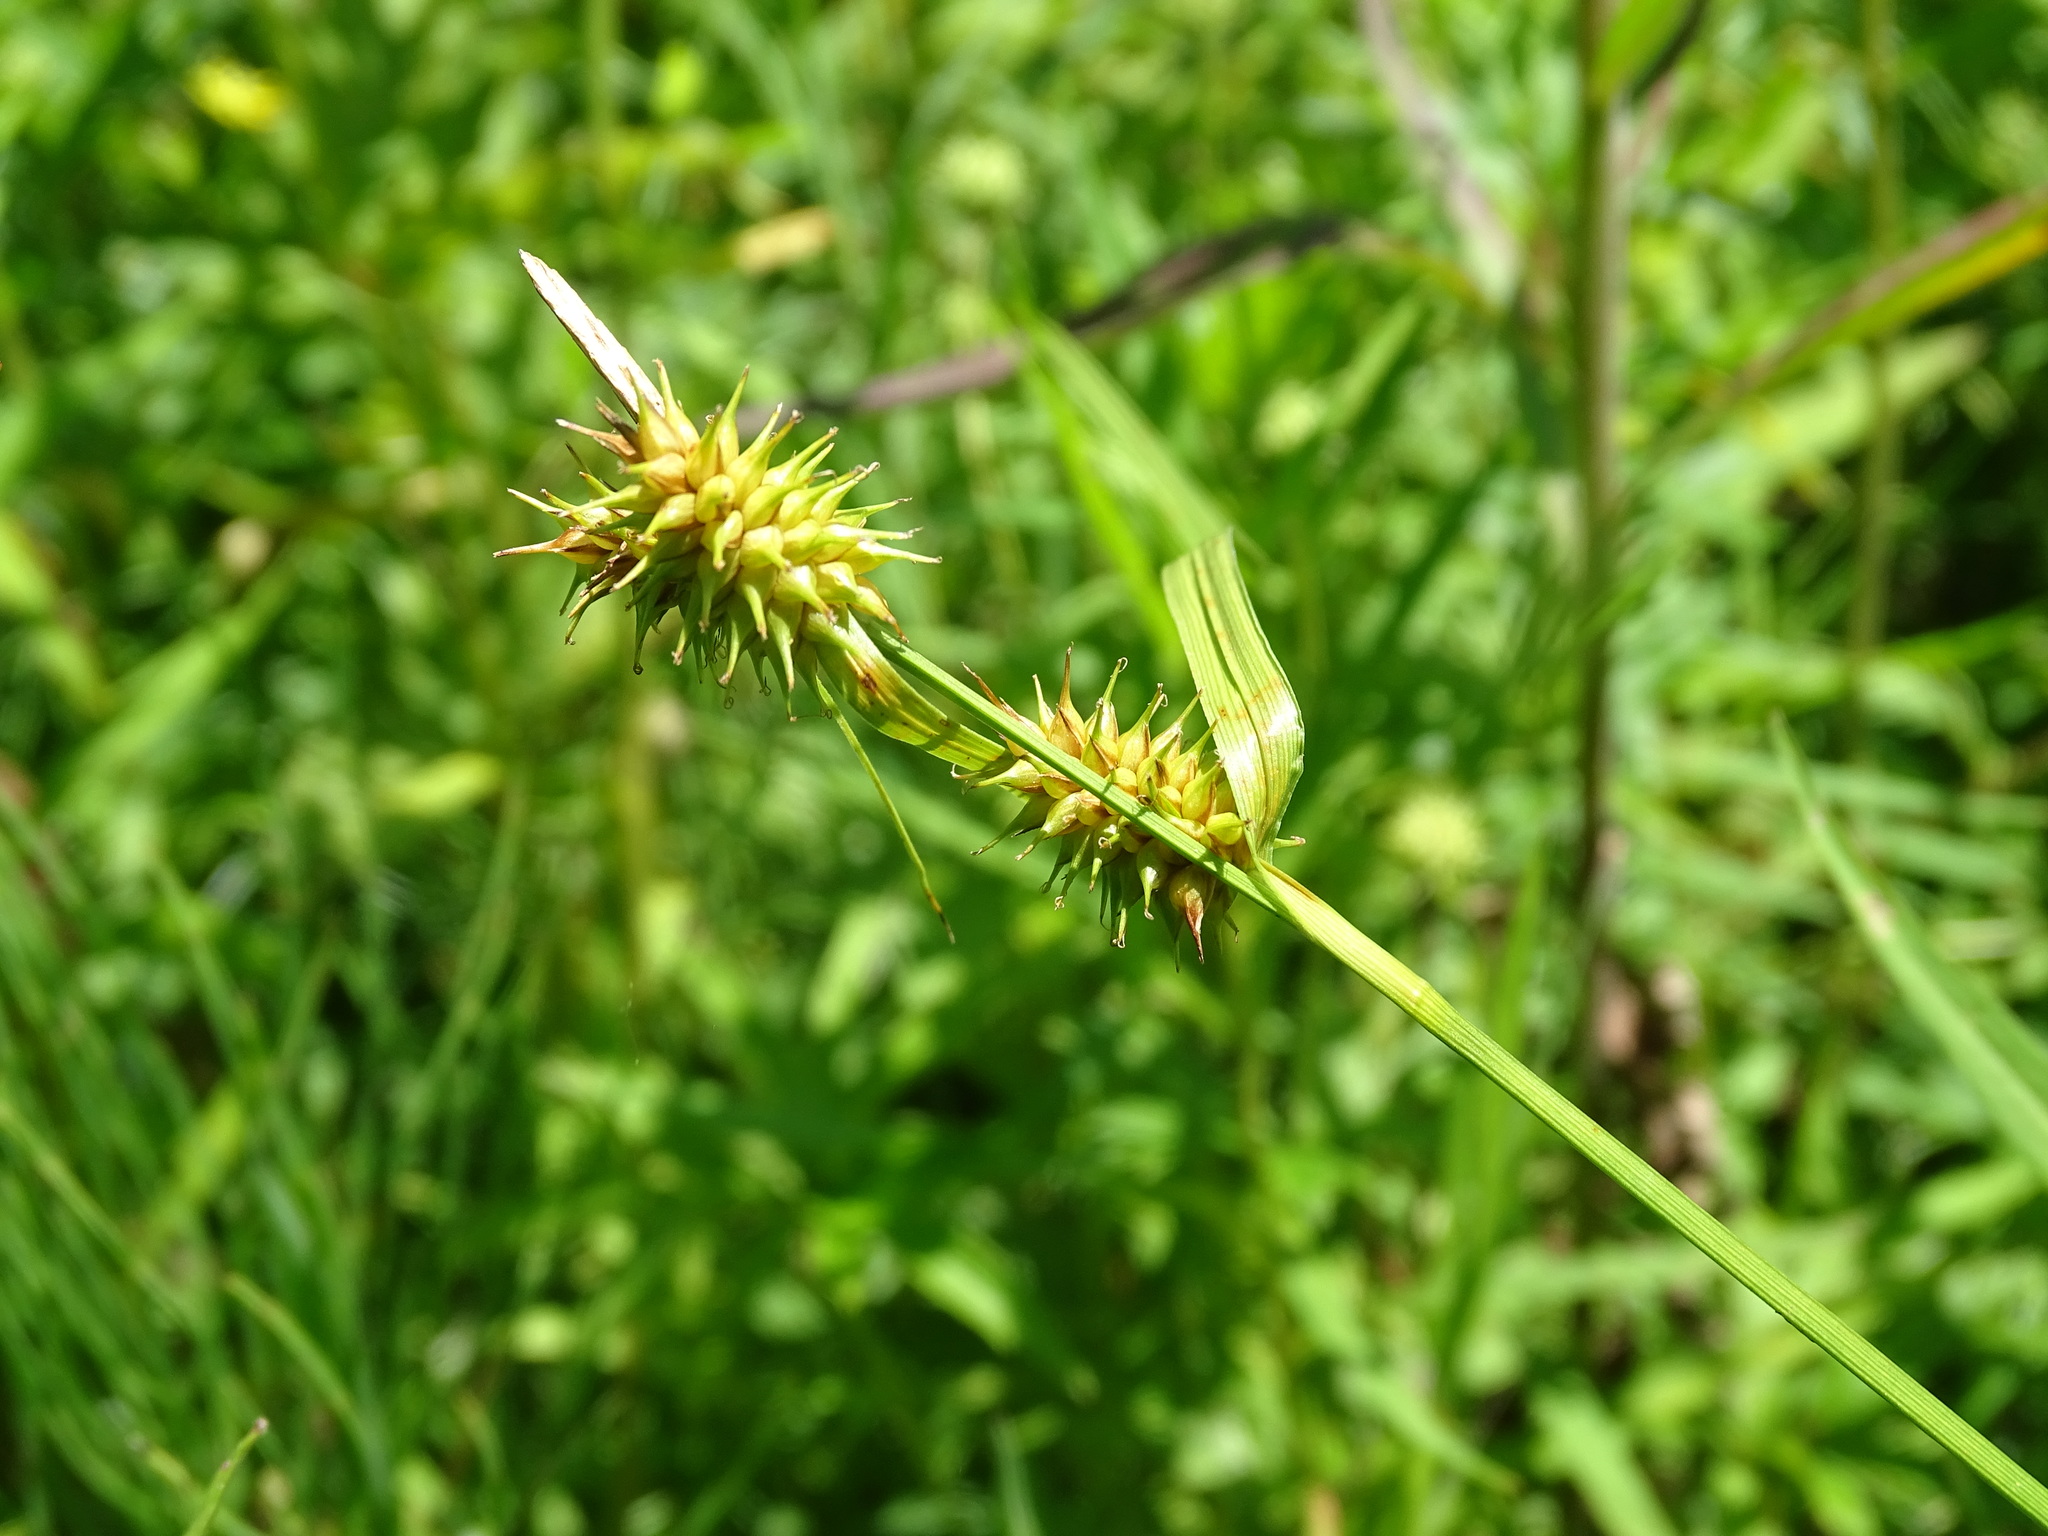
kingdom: Plantae
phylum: Tracheophyta
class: Liliopsida
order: Poales
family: Cyperaceae
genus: Carex
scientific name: Carex flava
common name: Large yellow-sedge
